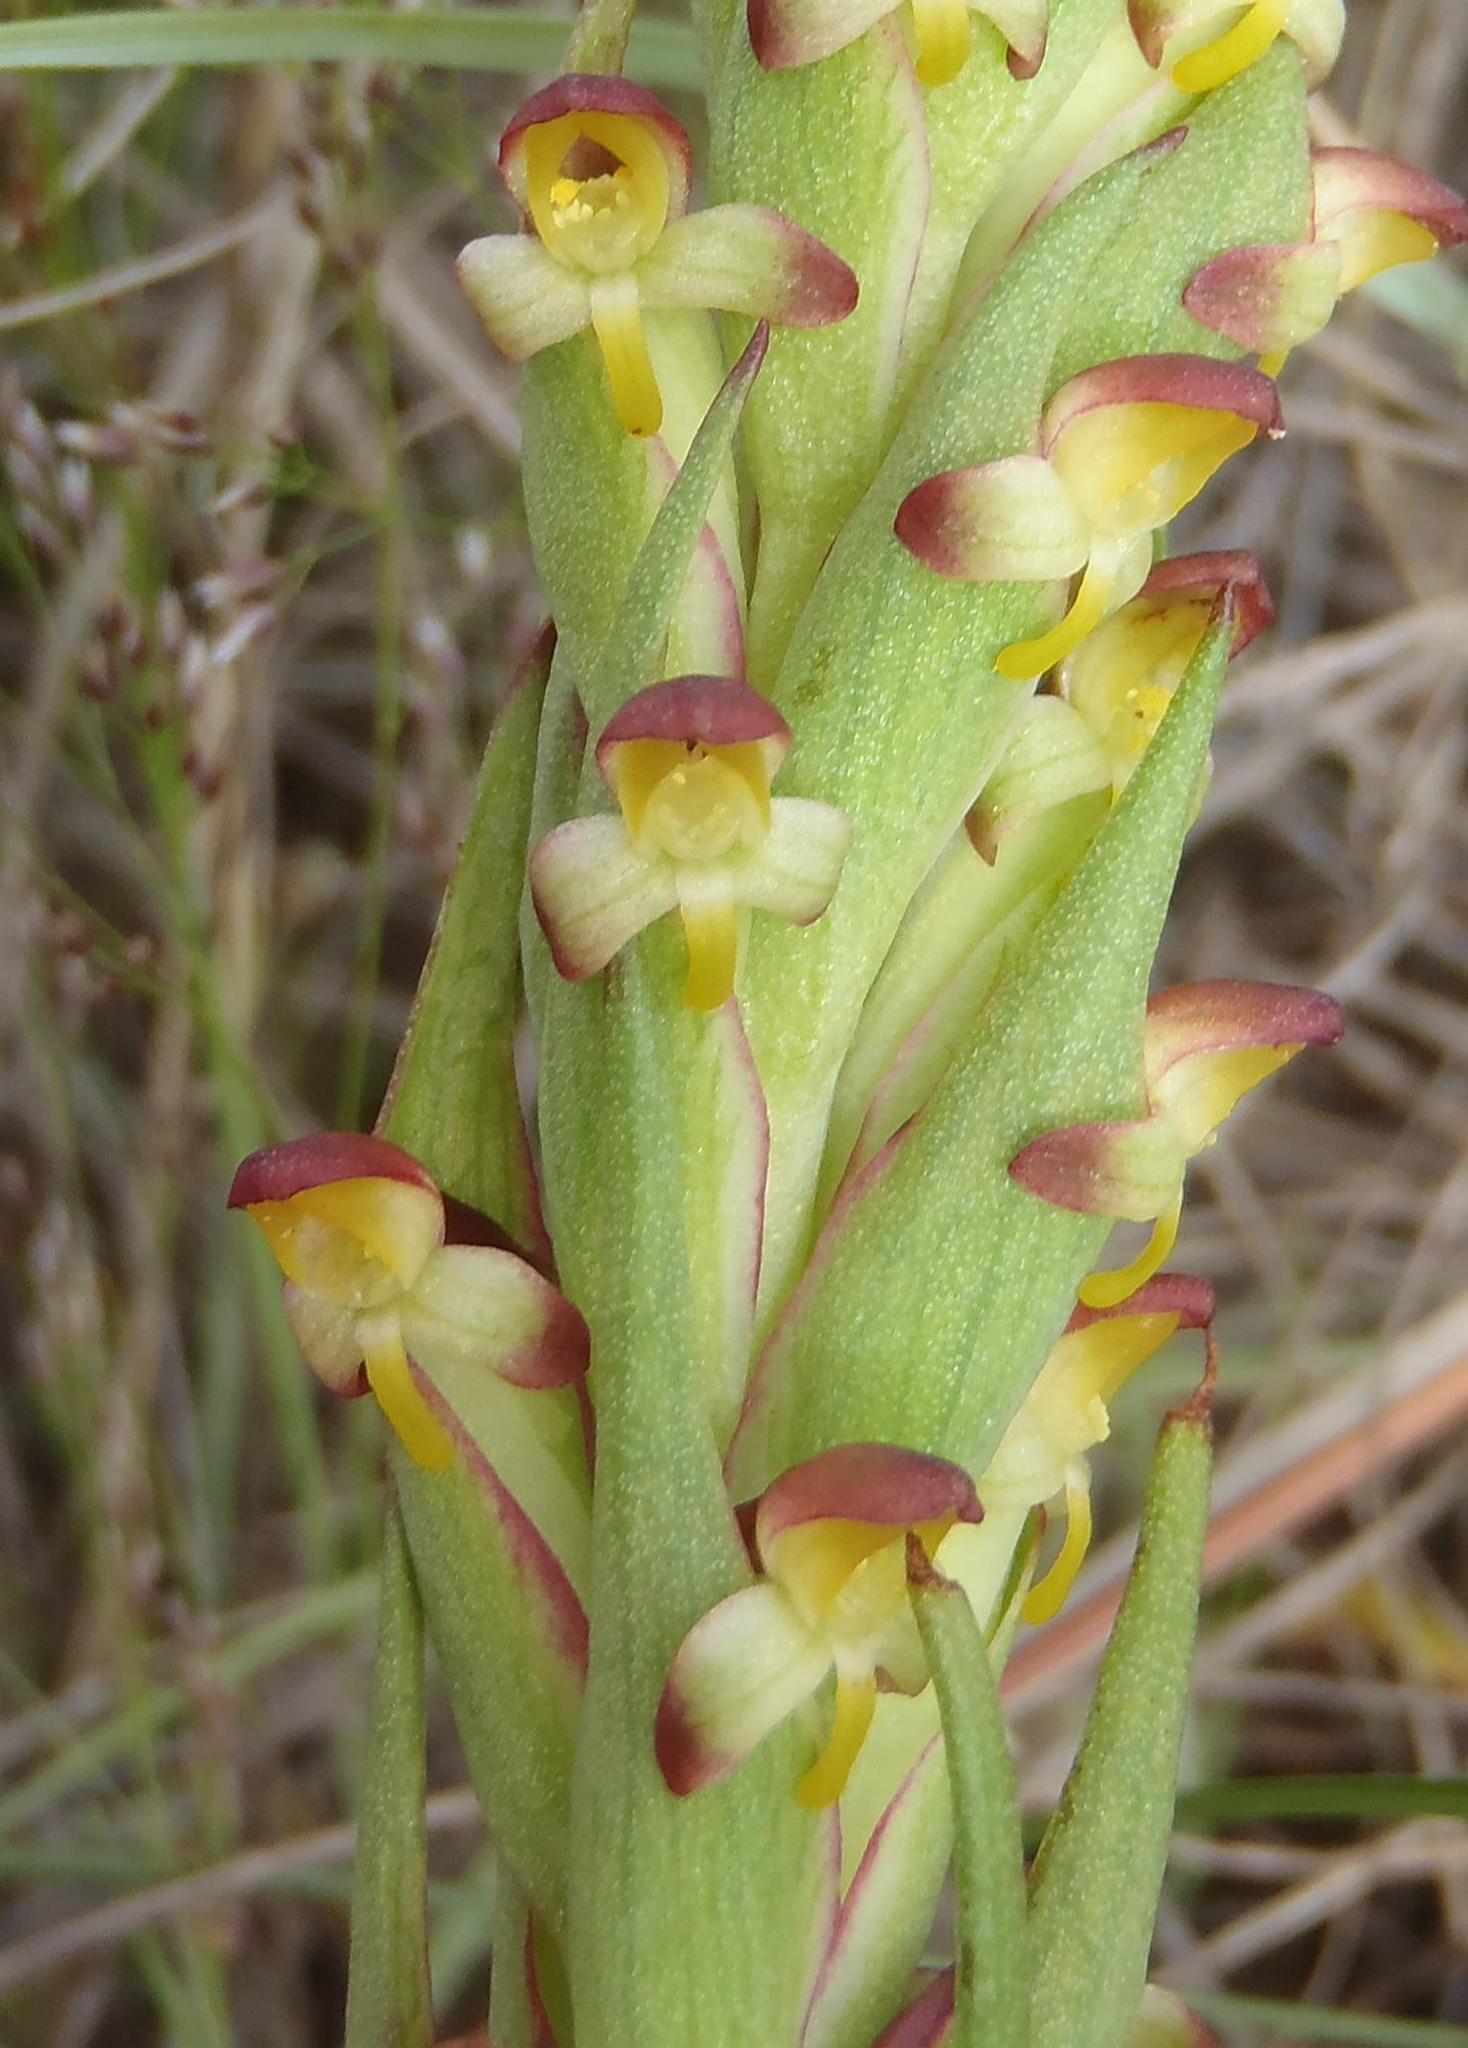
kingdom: Plantae
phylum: Tracheophyta
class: Liliopsida
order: Asparagales
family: Orchidaceae
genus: Disa
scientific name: Disa bracteata
